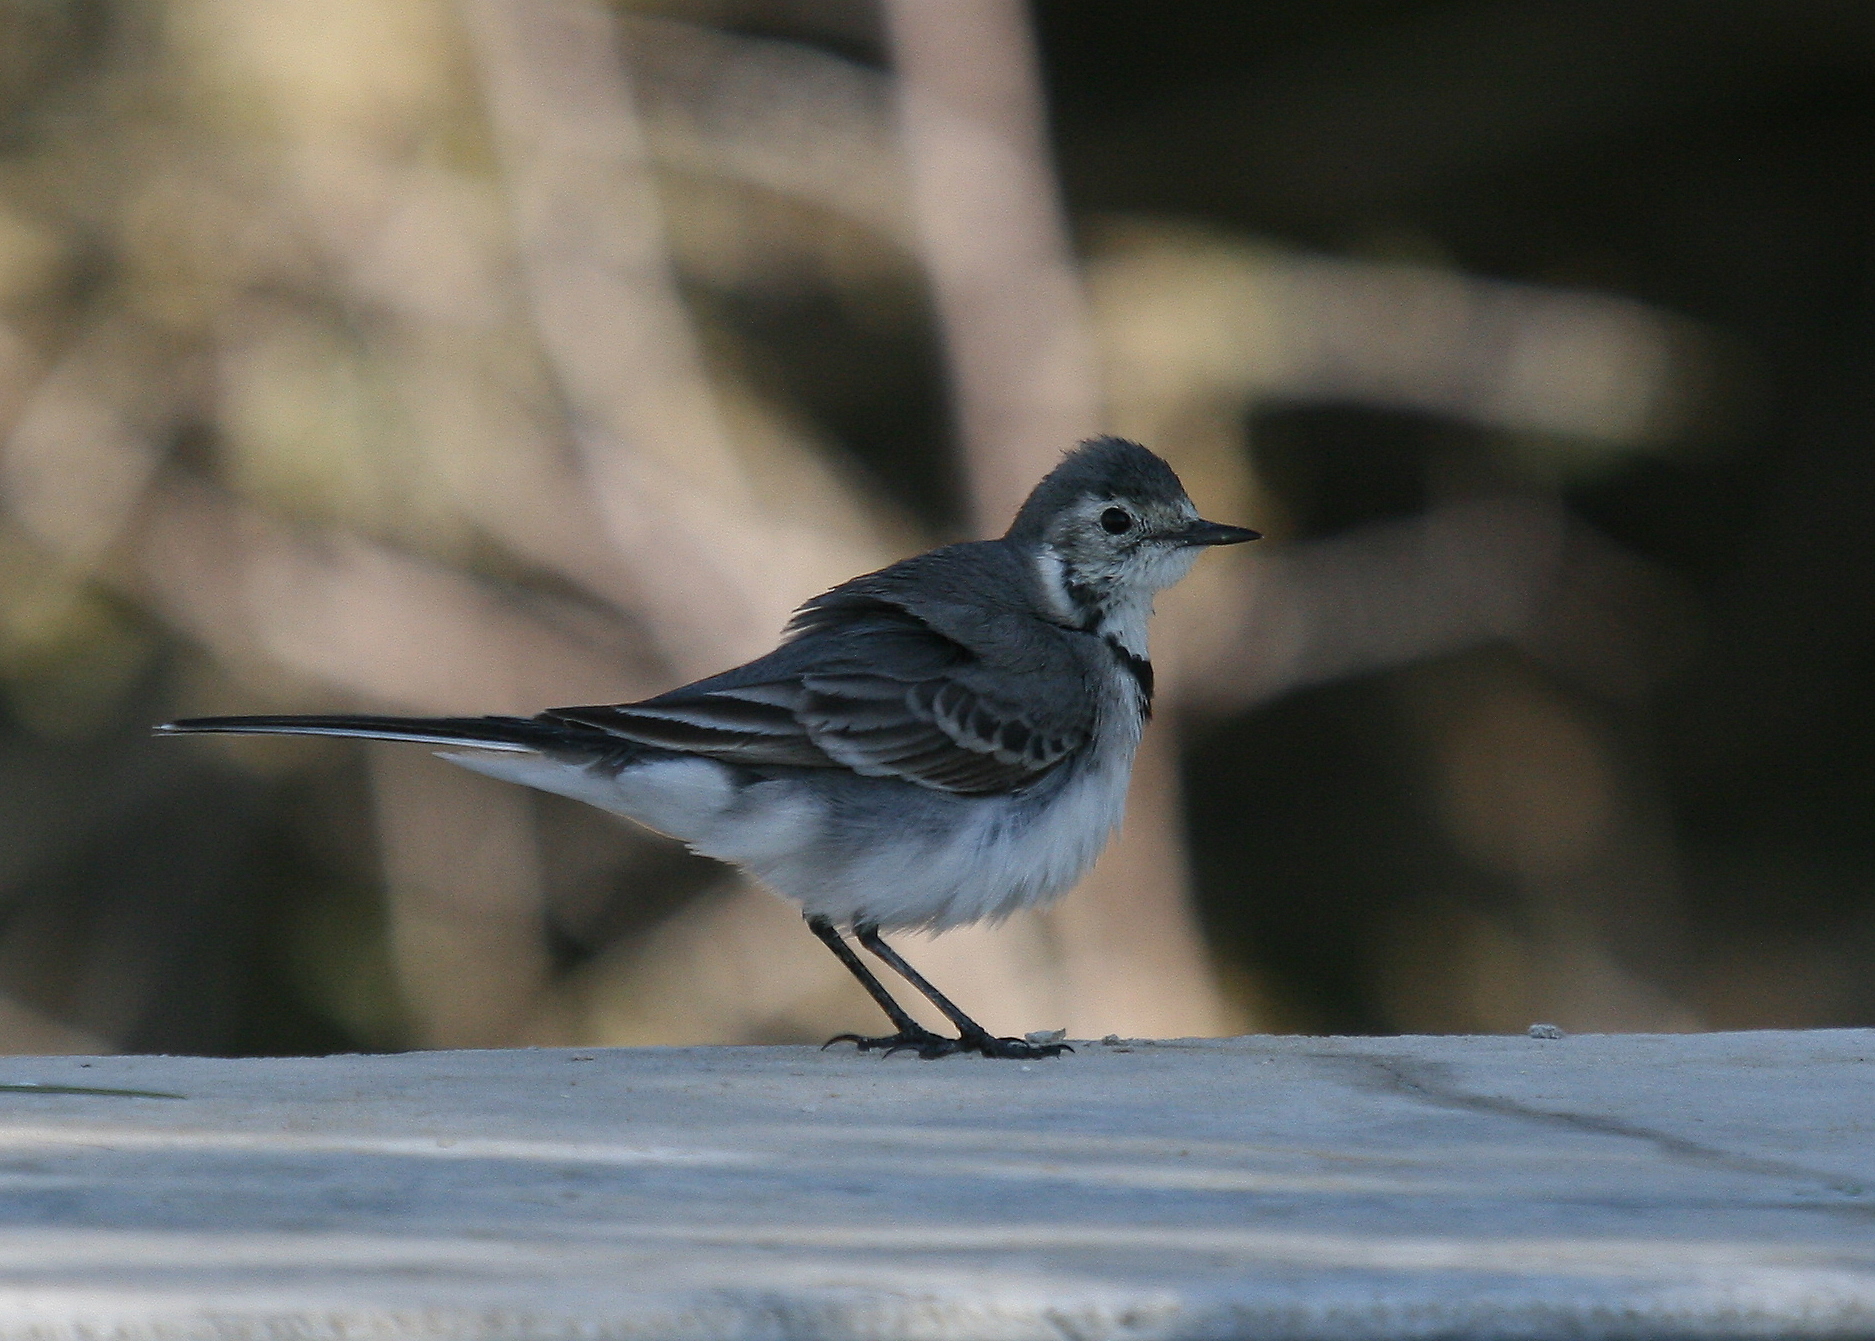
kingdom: Animalia
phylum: Chordata
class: Aves
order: Passeriformes
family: Motacillidae
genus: Motacilla
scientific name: Motacilla alba
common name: White wagtail
